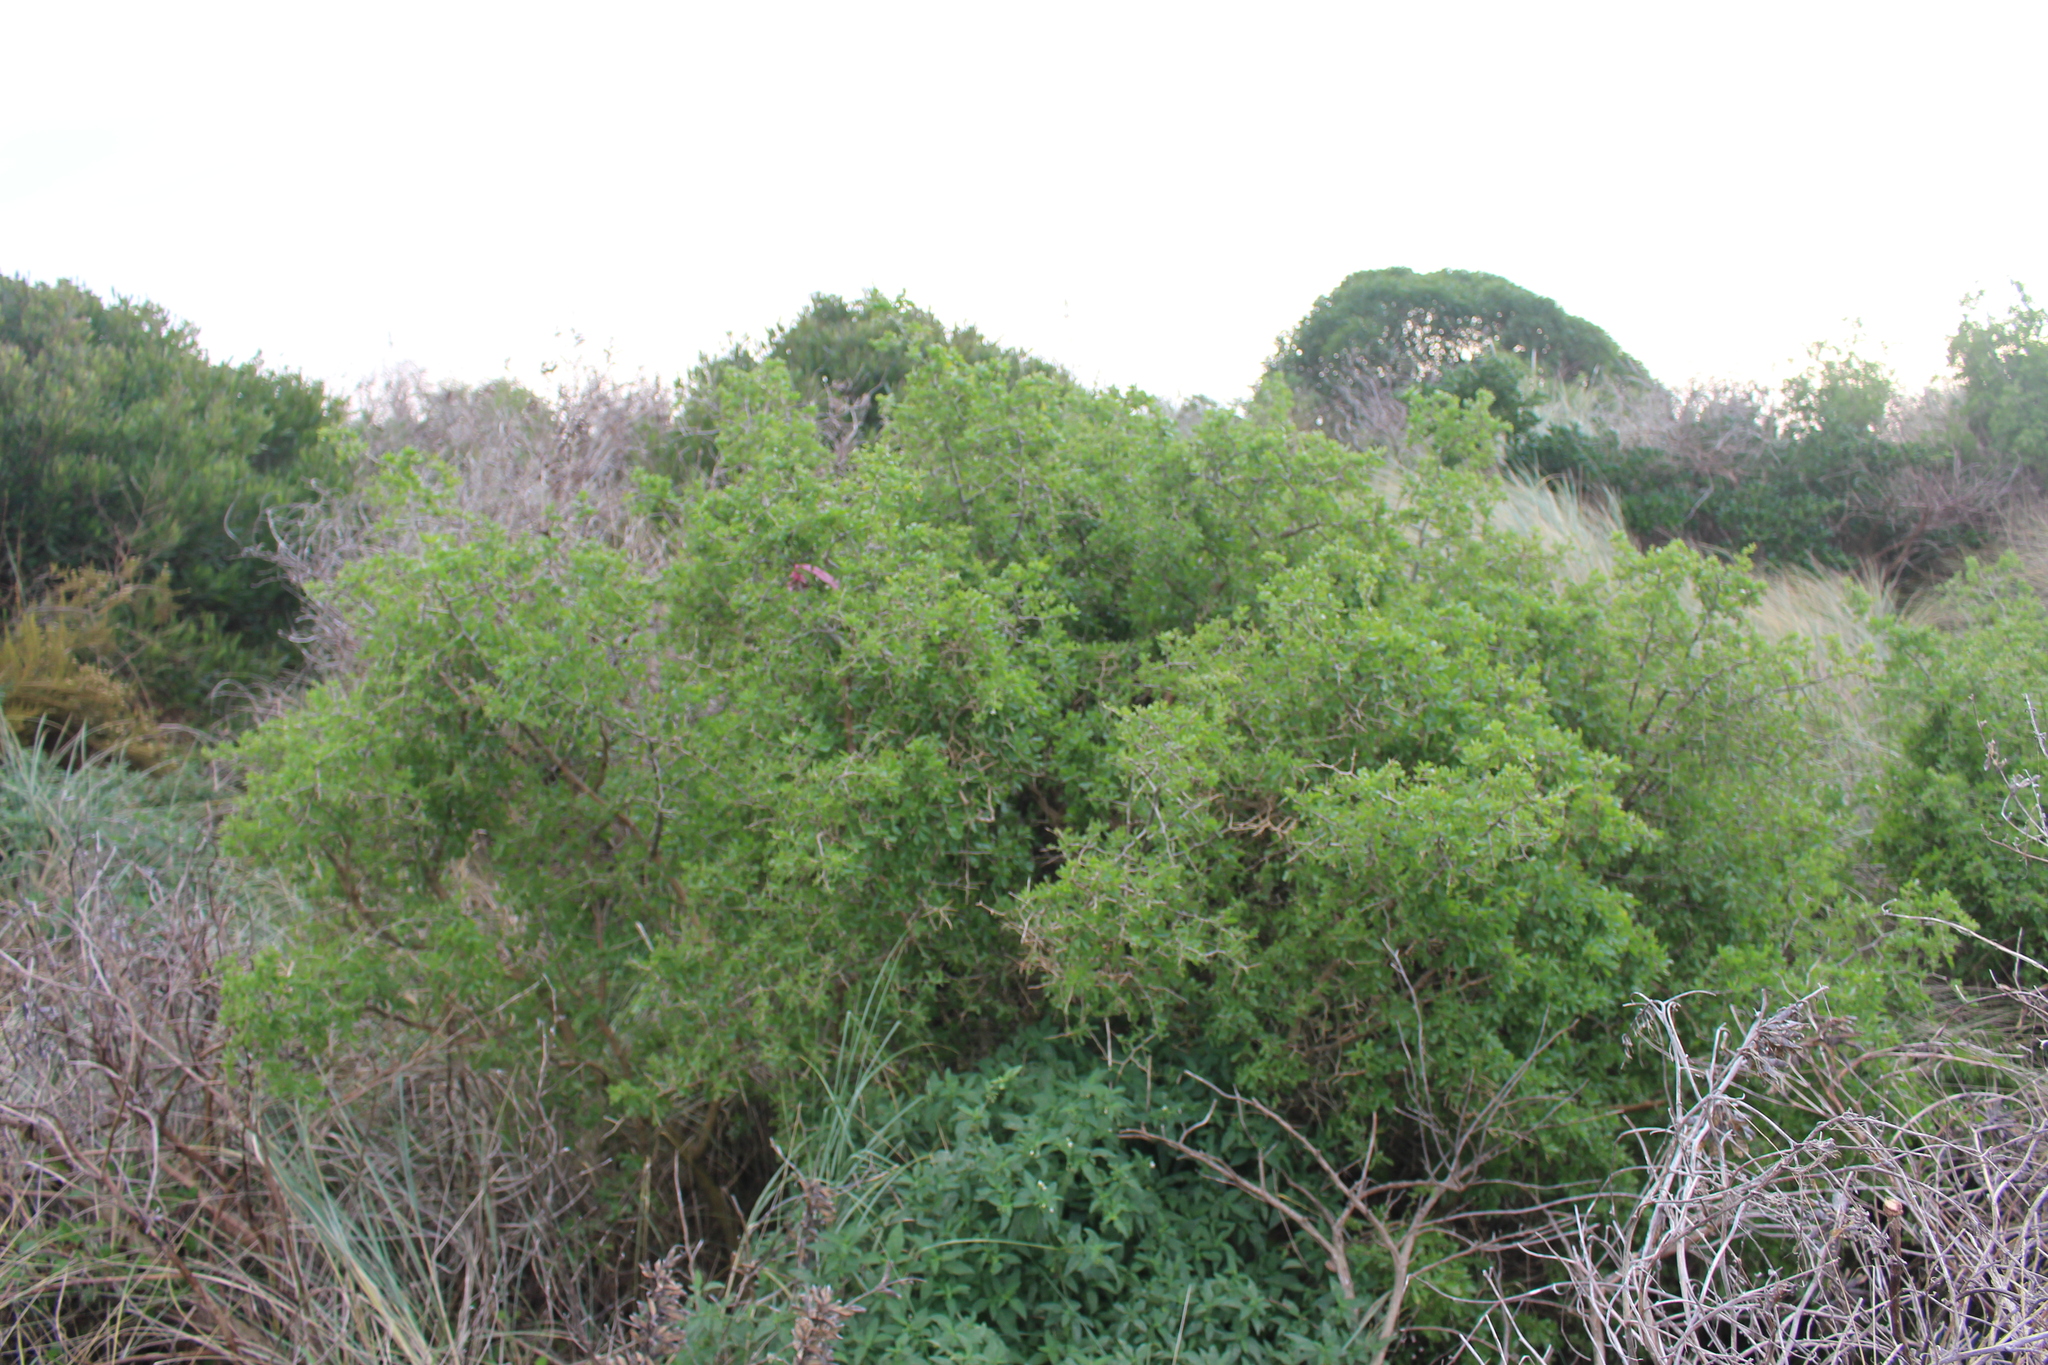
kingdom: Plantae
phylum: Tracheophyta
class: Magnoliopsida
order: Solanales
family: Solanaceae
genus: Lycium
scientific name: Lycium ferocissimum
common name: African boxthorn
